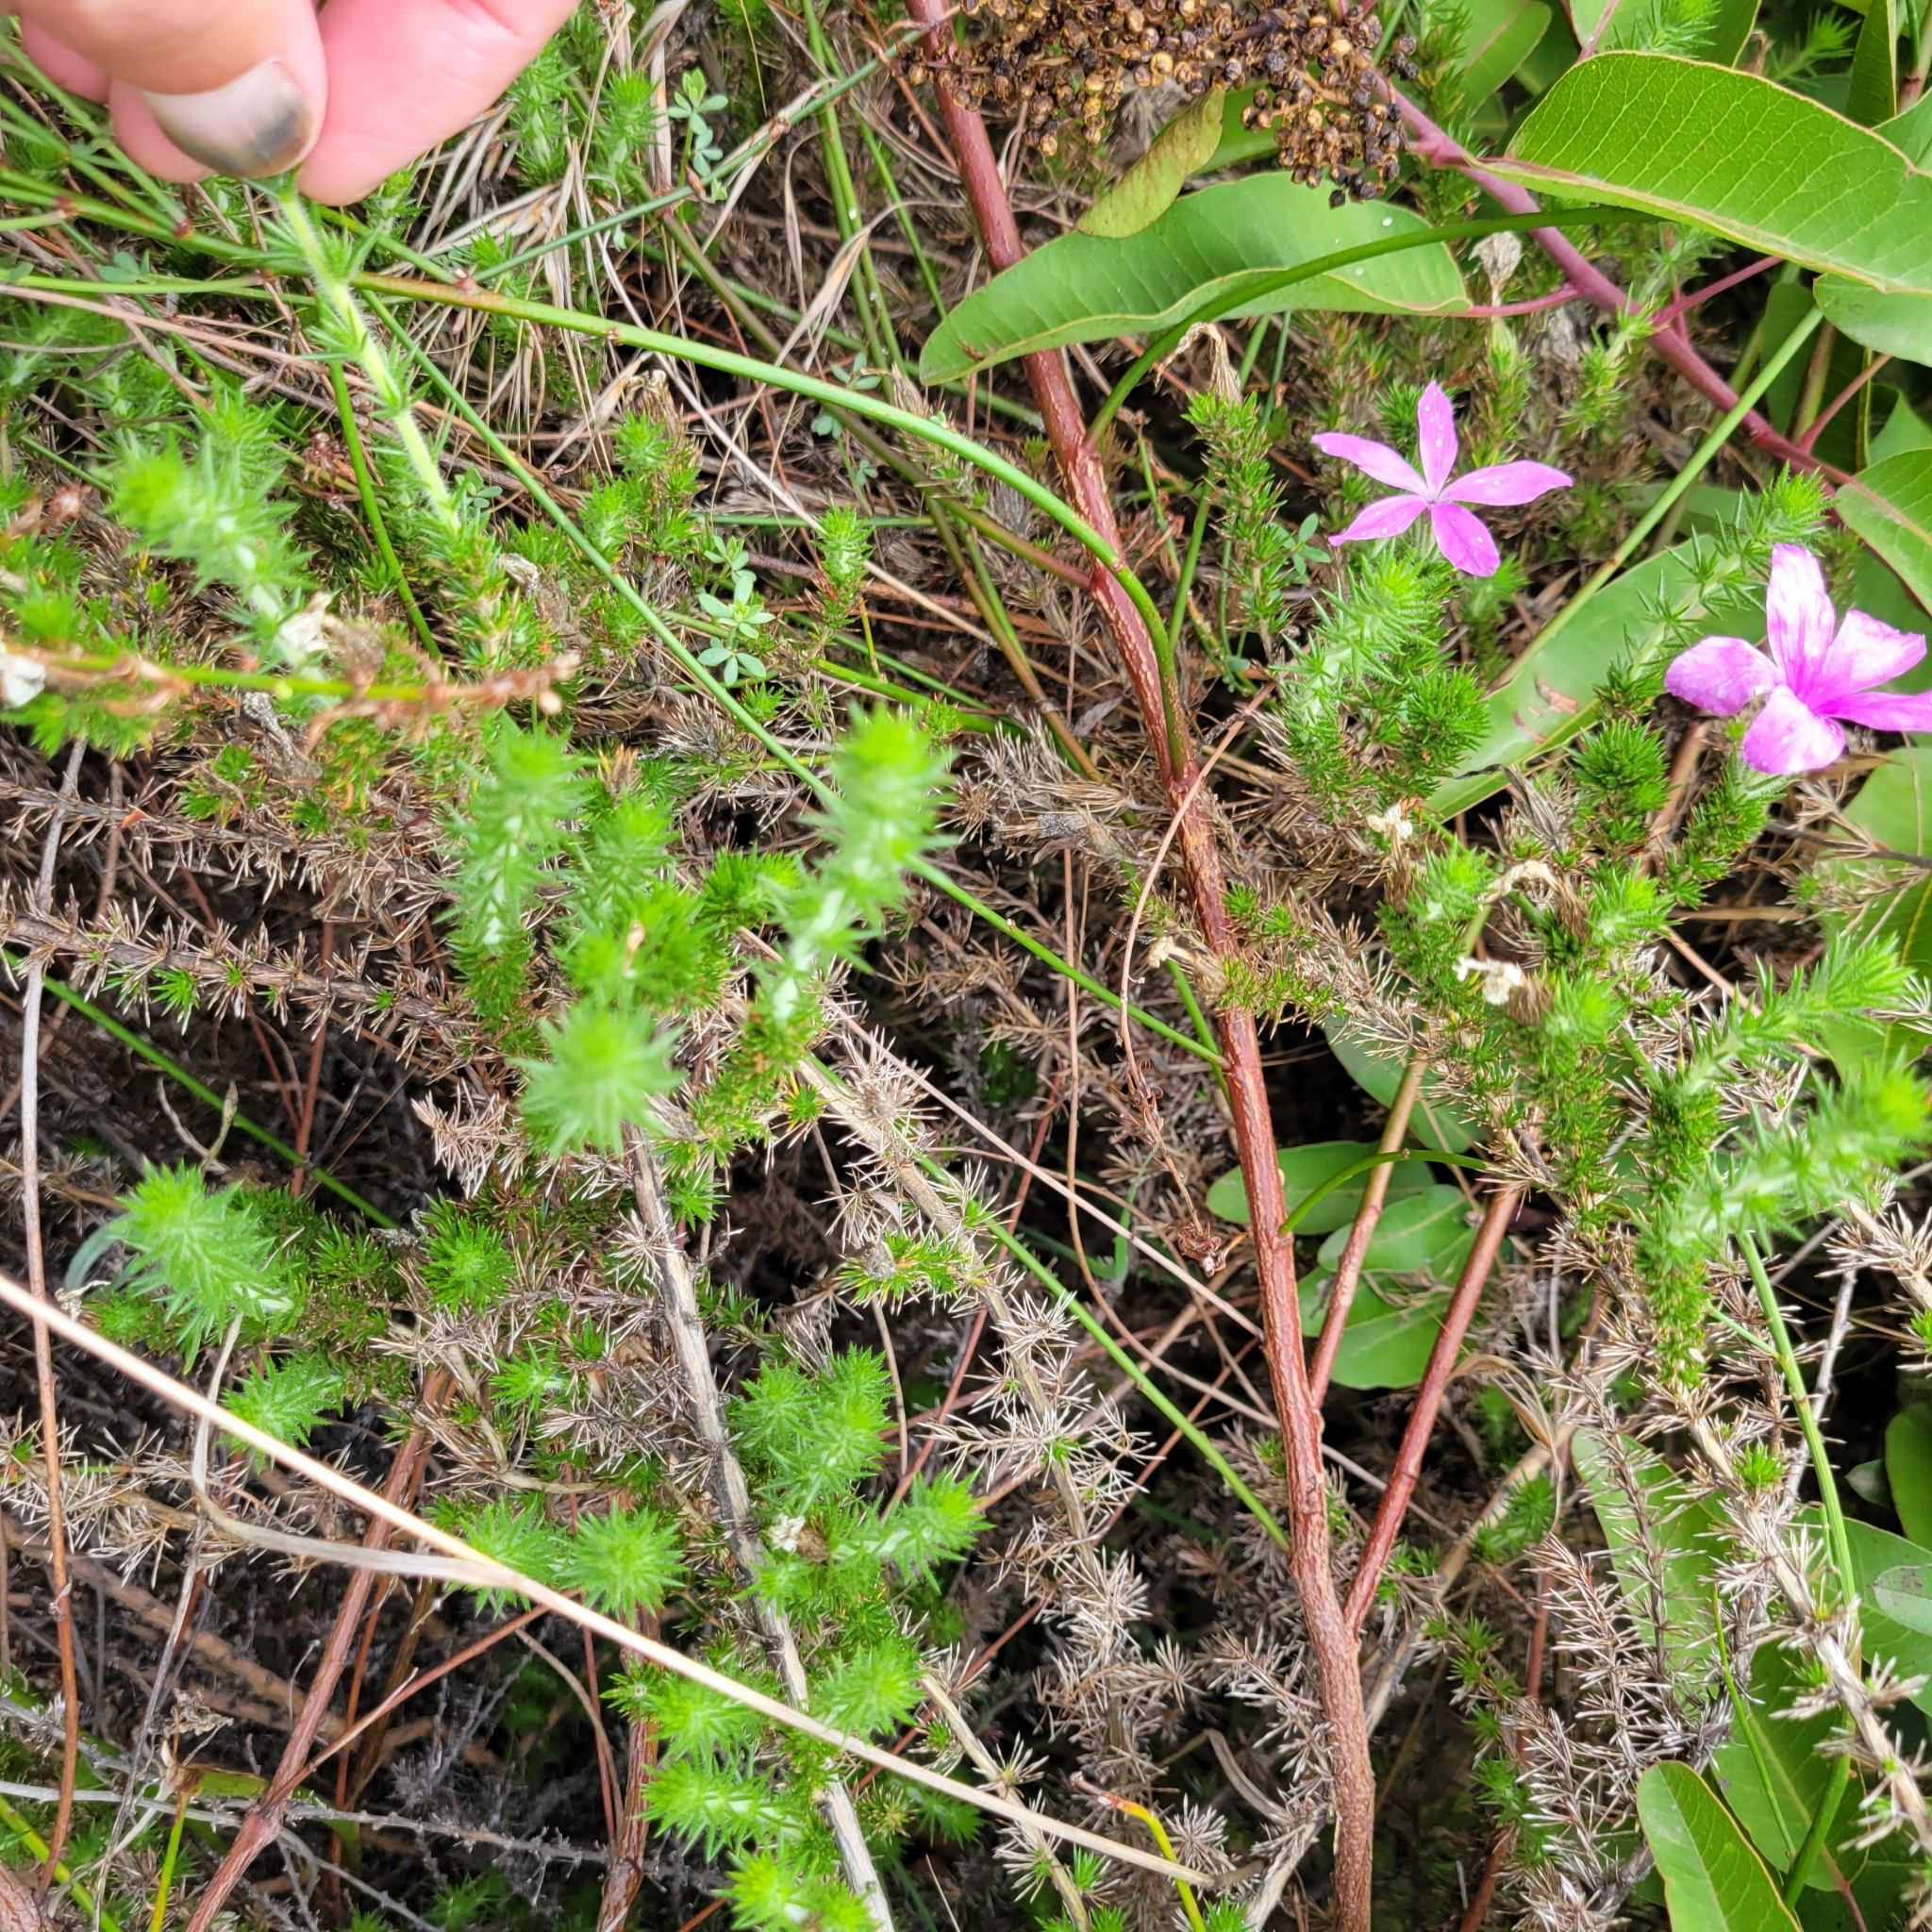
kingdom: Plantae
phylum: Tracheophyta
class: Magnoliopsida
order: Ericales
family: Polemoniaceae
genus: Linanthus
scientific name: Linanthus californicus
